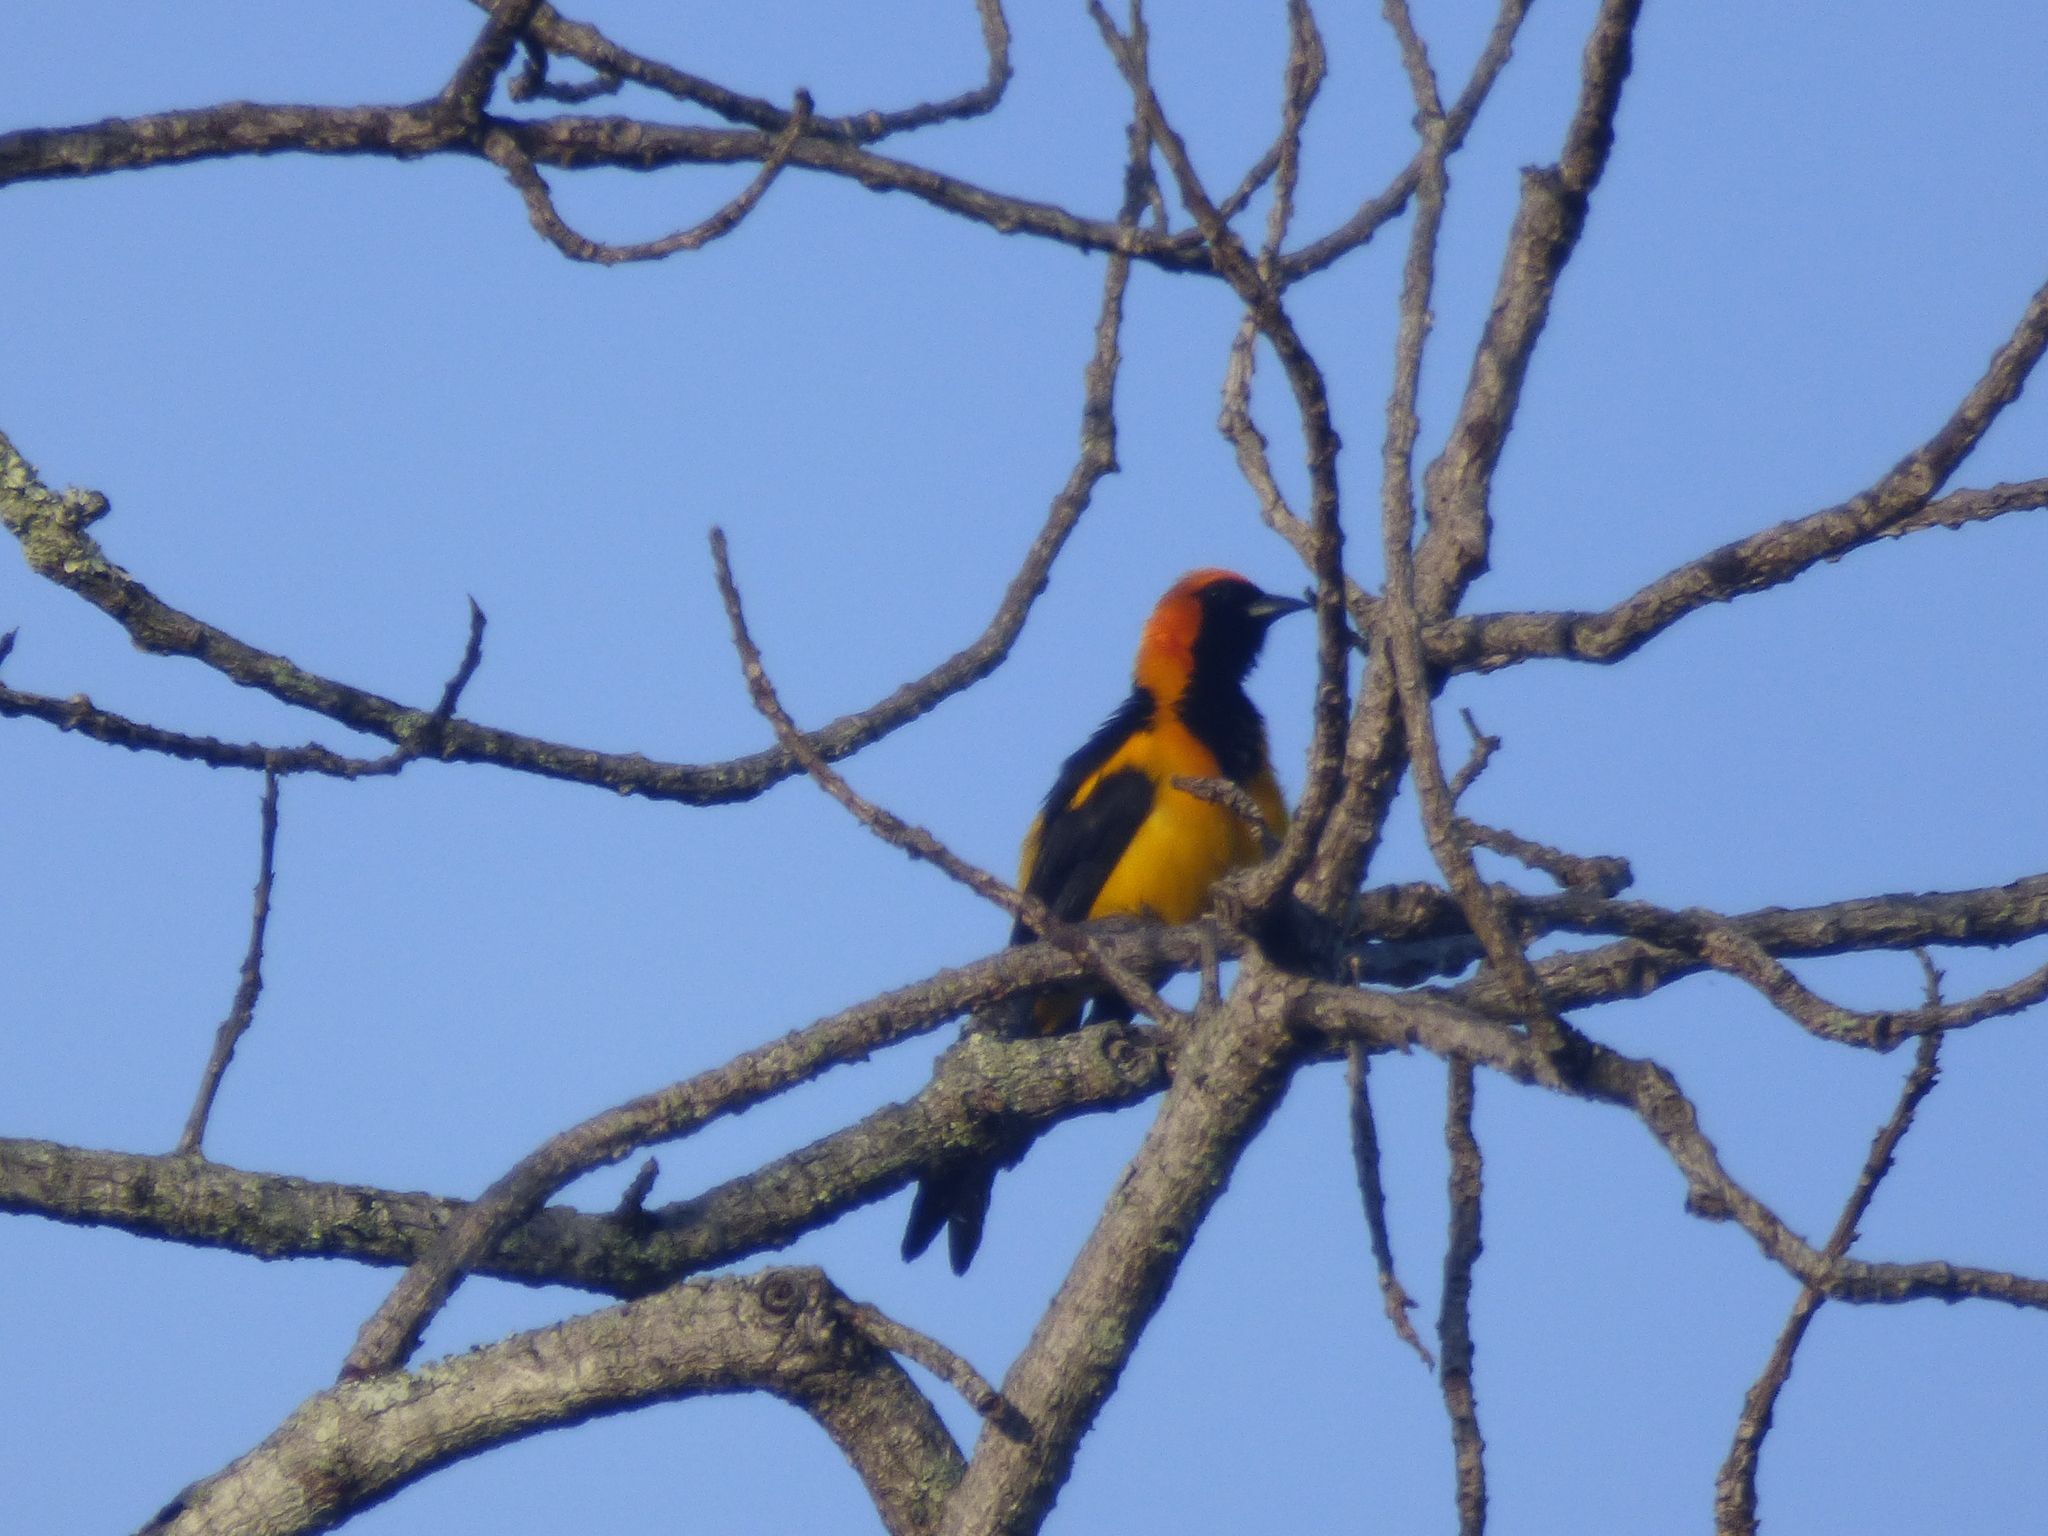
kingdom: Animalia
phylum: Chordata
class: Aves
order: Passeriformes
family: Icteridae
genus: Icterus
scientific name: Icterus auricapillus
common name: Orange-crowned oriole
